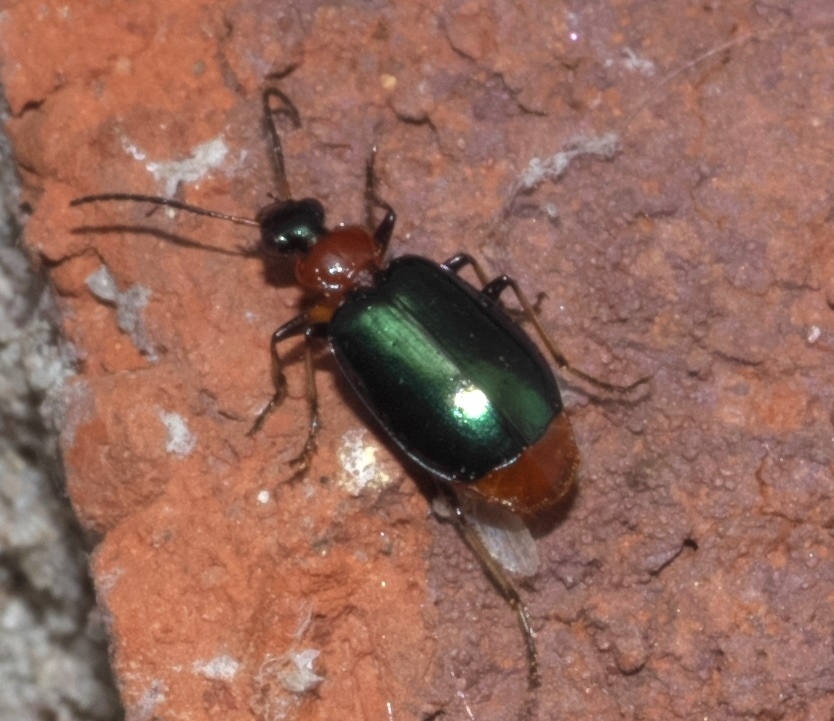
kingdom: Animalia
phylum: Arthropoda
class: Insecta
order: Coleoptera
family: Carabidae
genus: Lebia
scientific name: Lebia viridipennis
